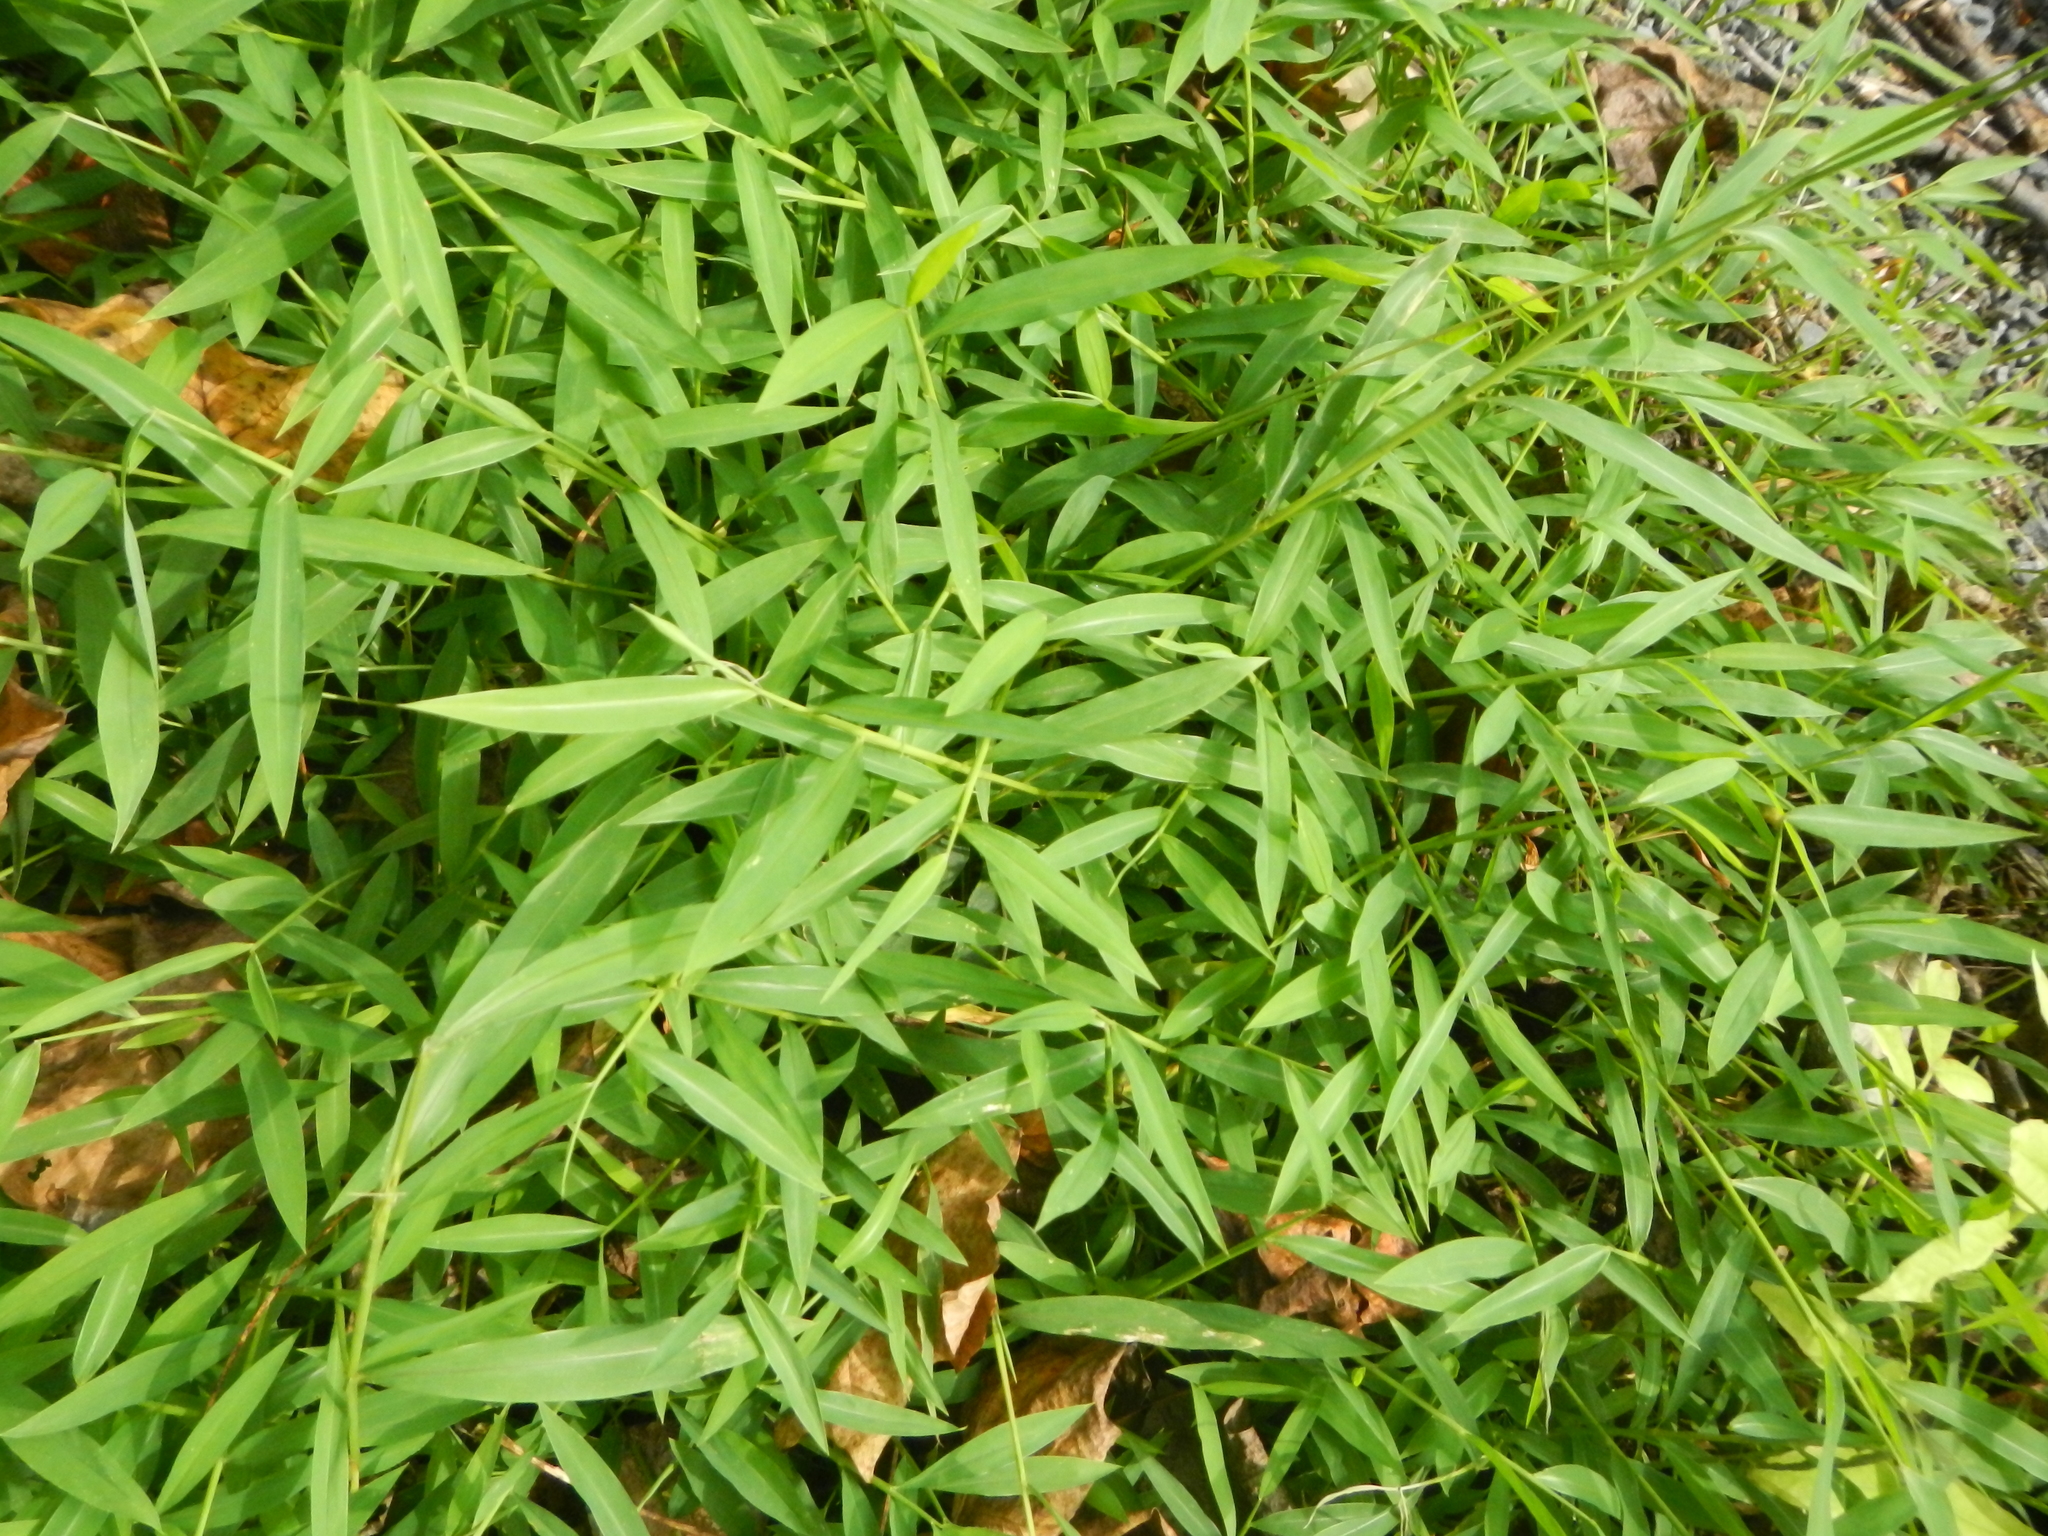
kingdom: Plantae
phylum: Tracheophyta
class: Liliopsida
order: Poales
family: Poaceae
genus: Microstegium
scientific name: Microstegium vimineum
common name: Japanese stiltgrass
